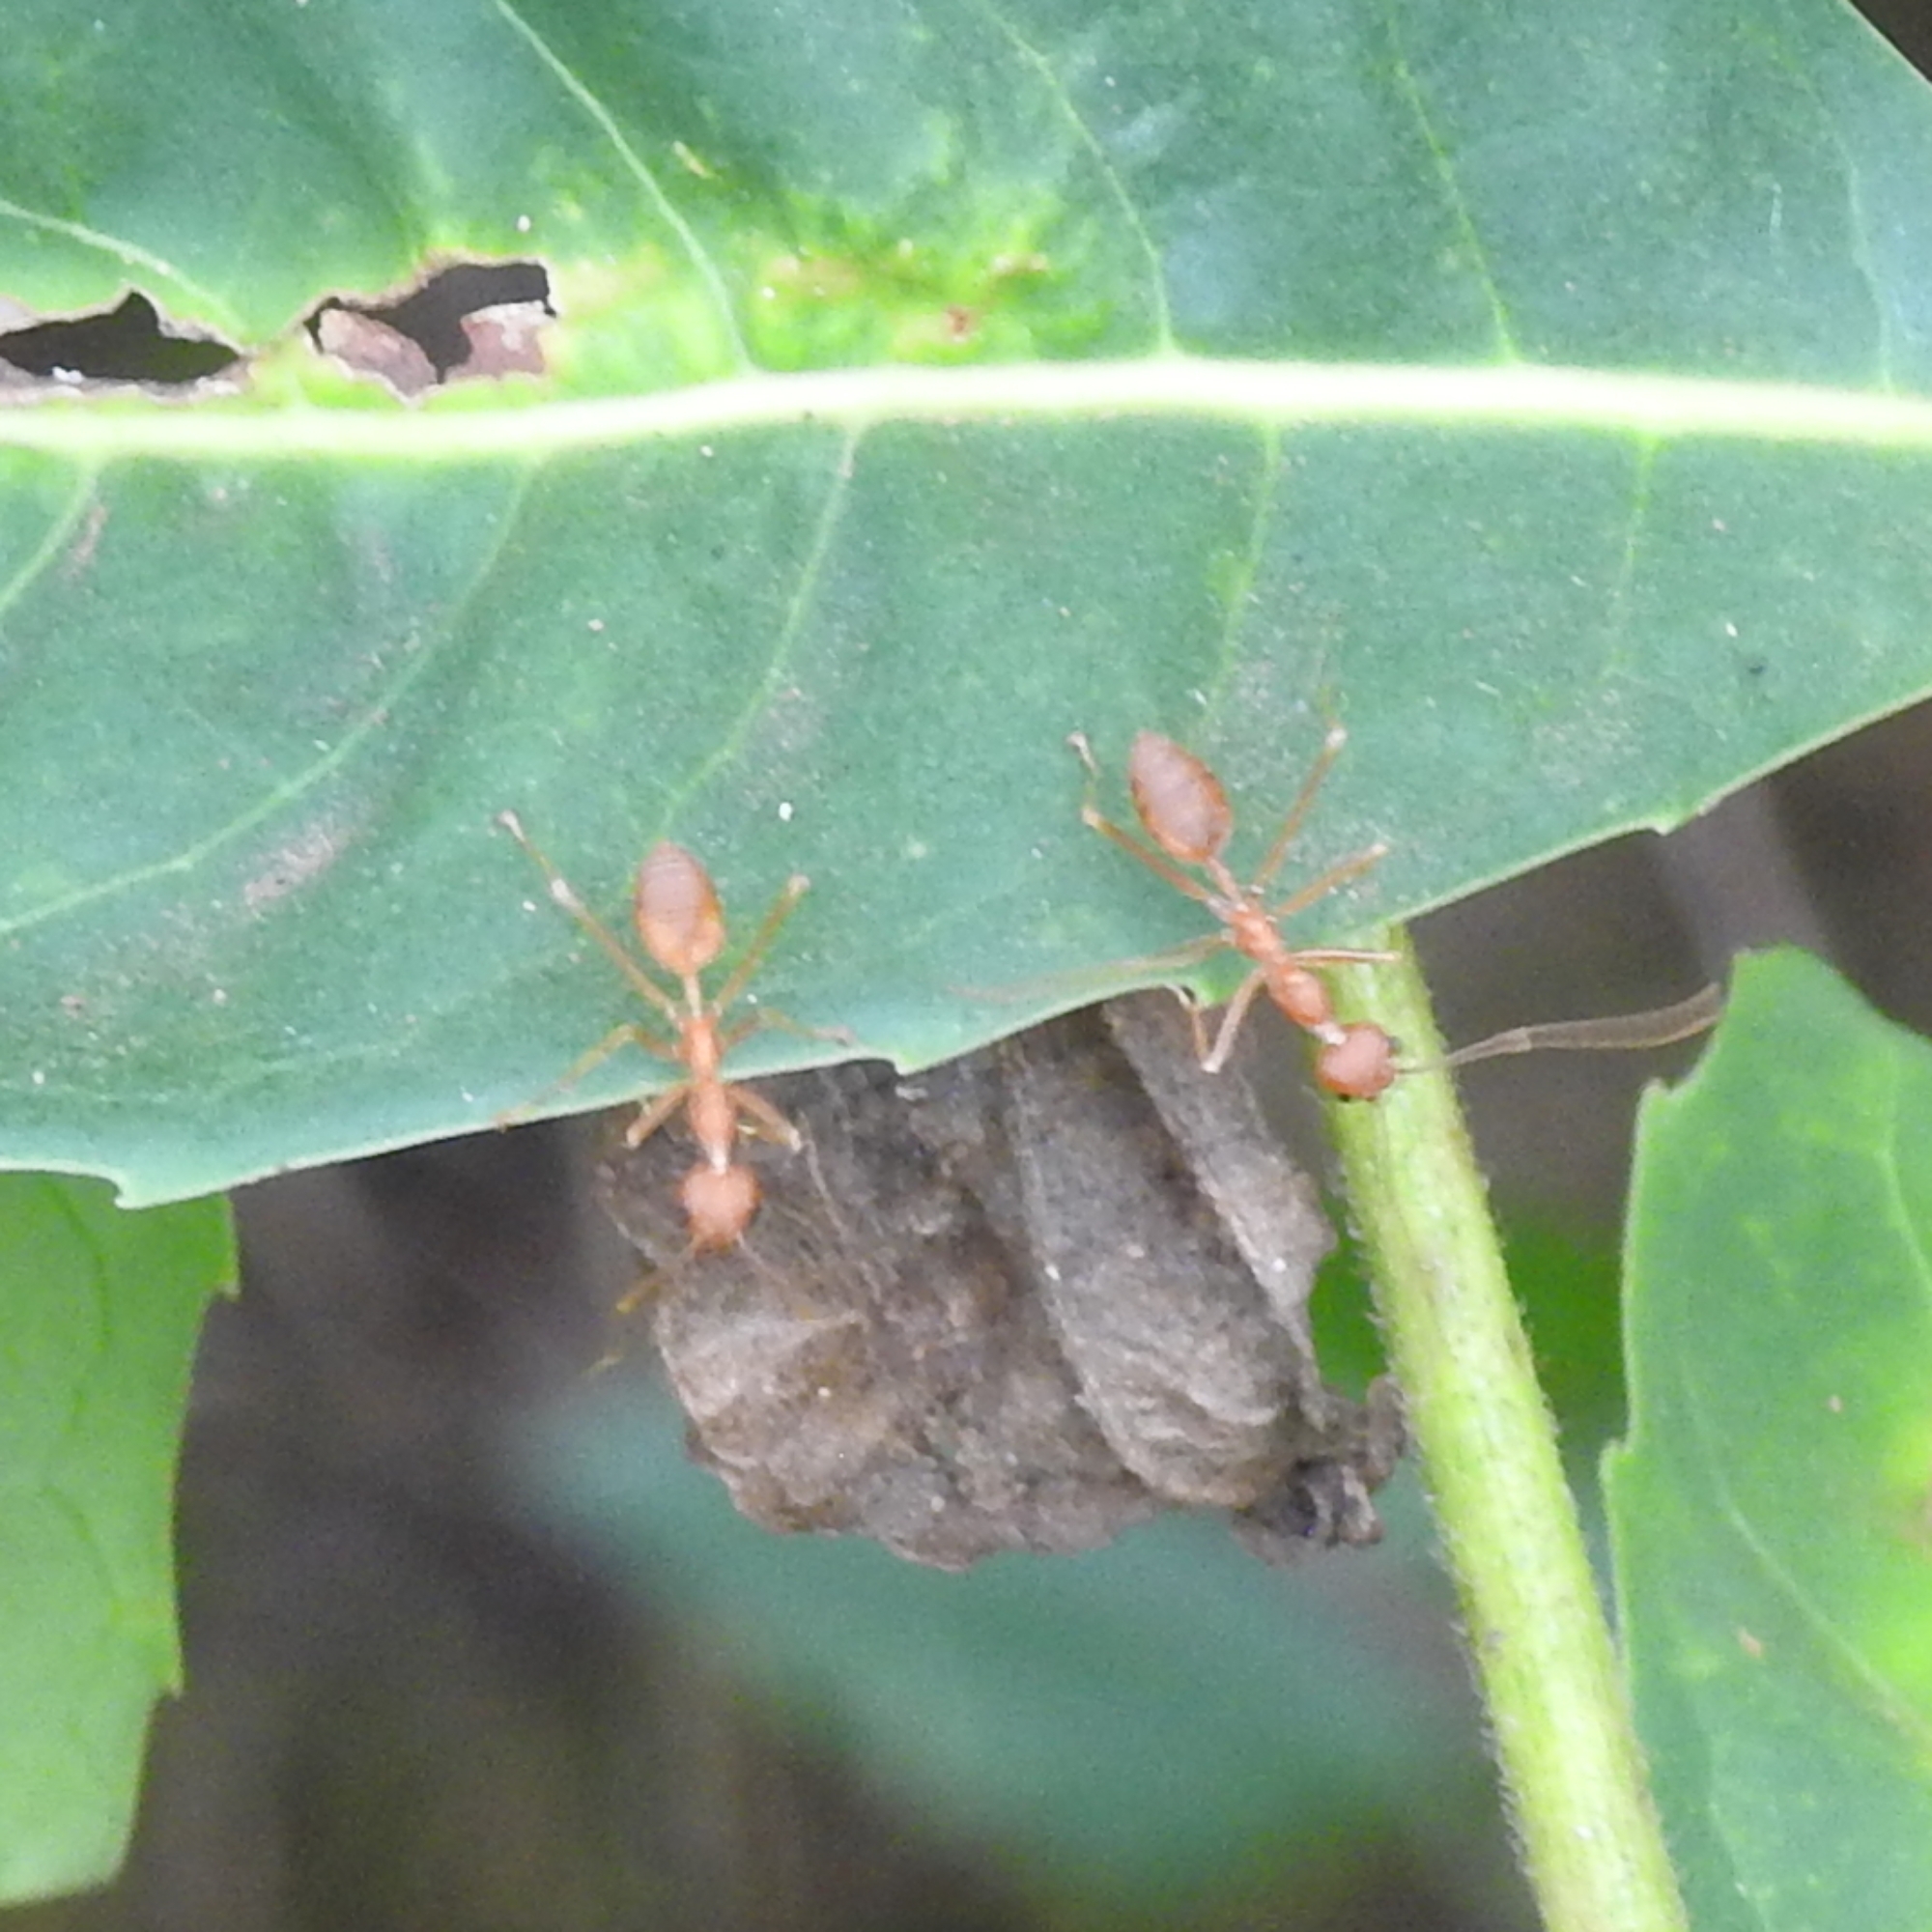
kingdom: Animalia
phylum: Arthropoda
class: Insecta
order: Hymenoptera
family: Formicidae
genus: Oecophylla
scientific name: Oecophylla smaragdina
